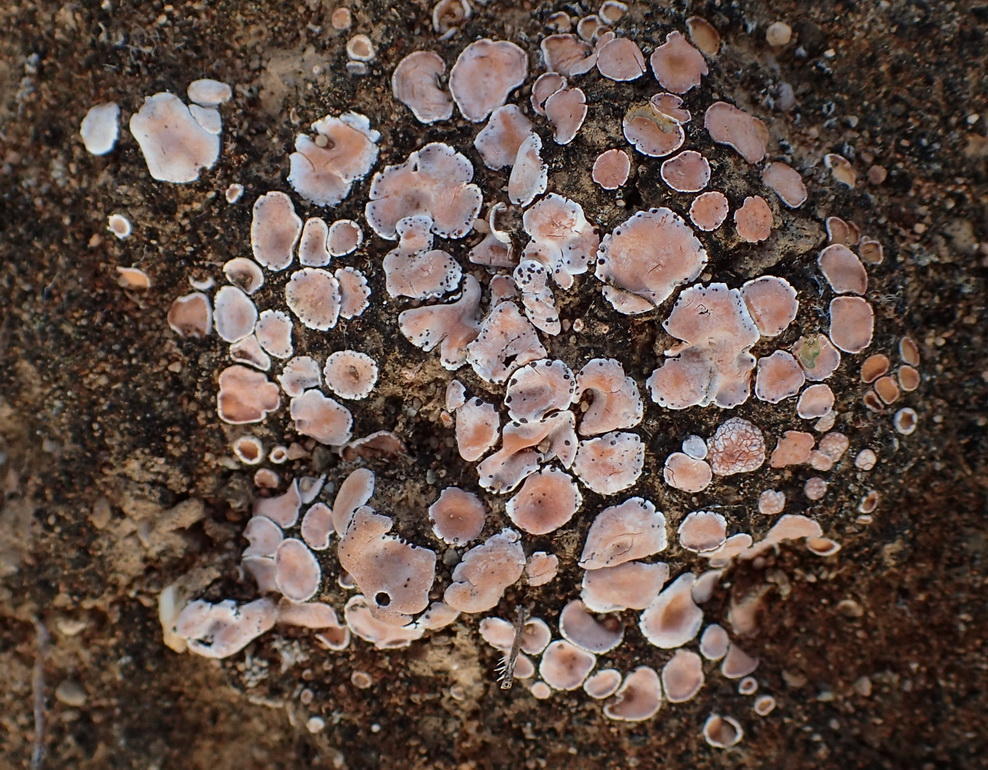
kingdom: Fungi
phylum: Ascomycota
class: Lecanoromycetes
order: Lecanorales
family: Psoraceae
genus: Psora
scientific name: Psora crenata
